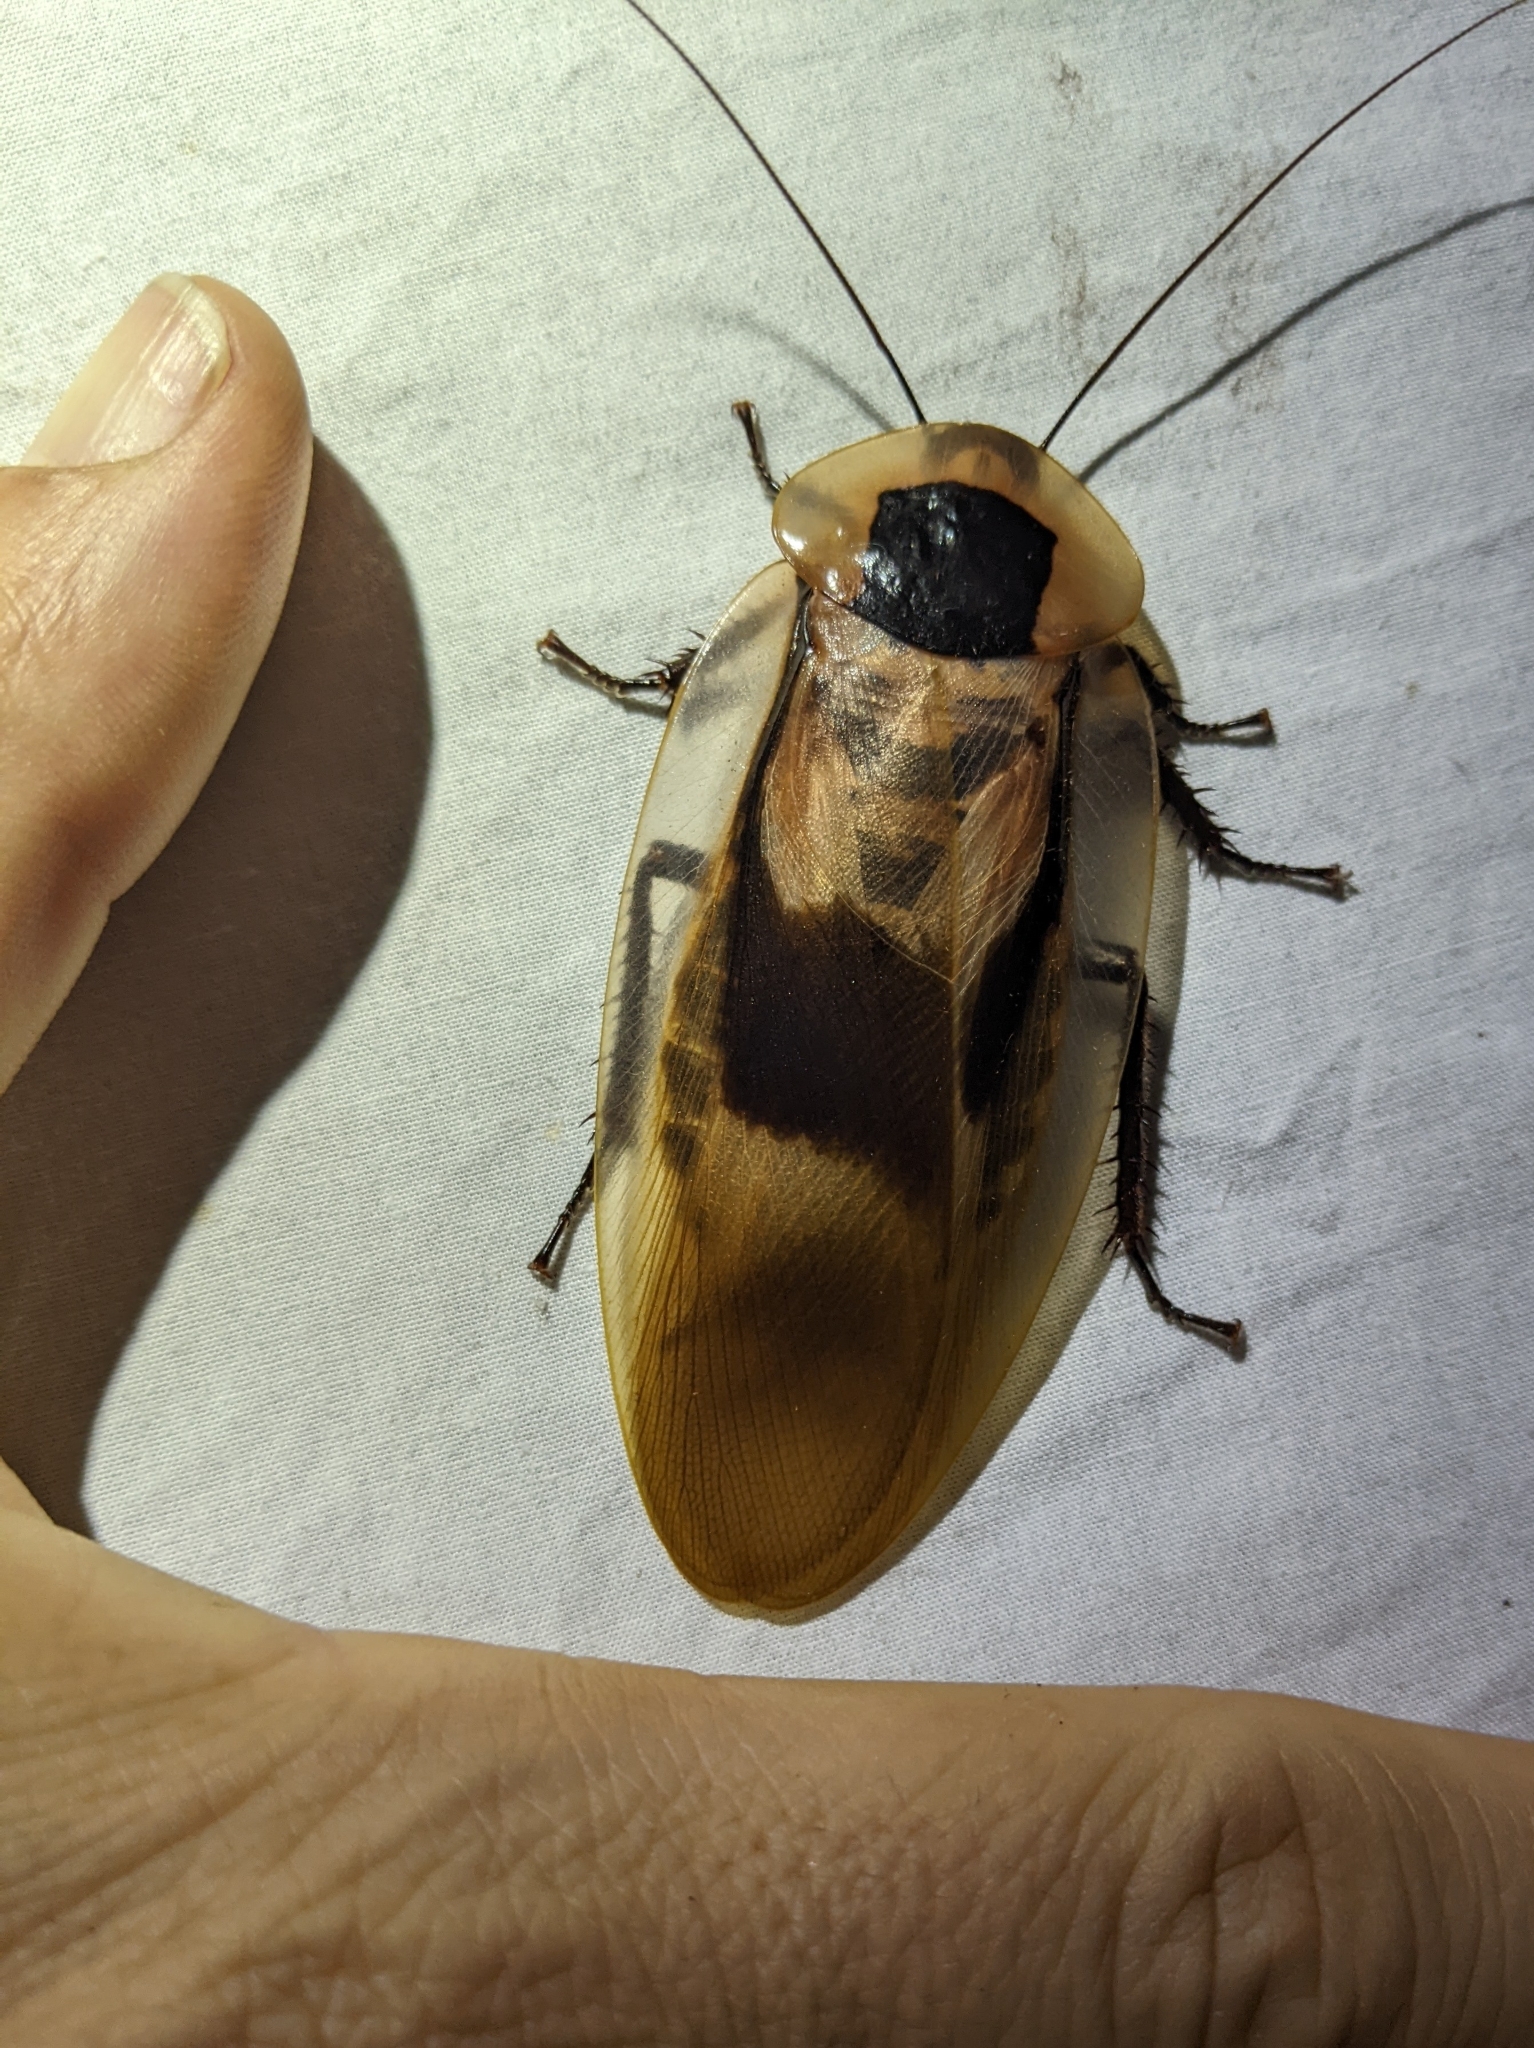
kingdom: Animalia
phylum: Arthropoda
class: Insecta
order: Blattodea
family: Blaberidae
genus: Blaberus
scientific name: Blaberus giganteus
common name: Giant cave cockroach
